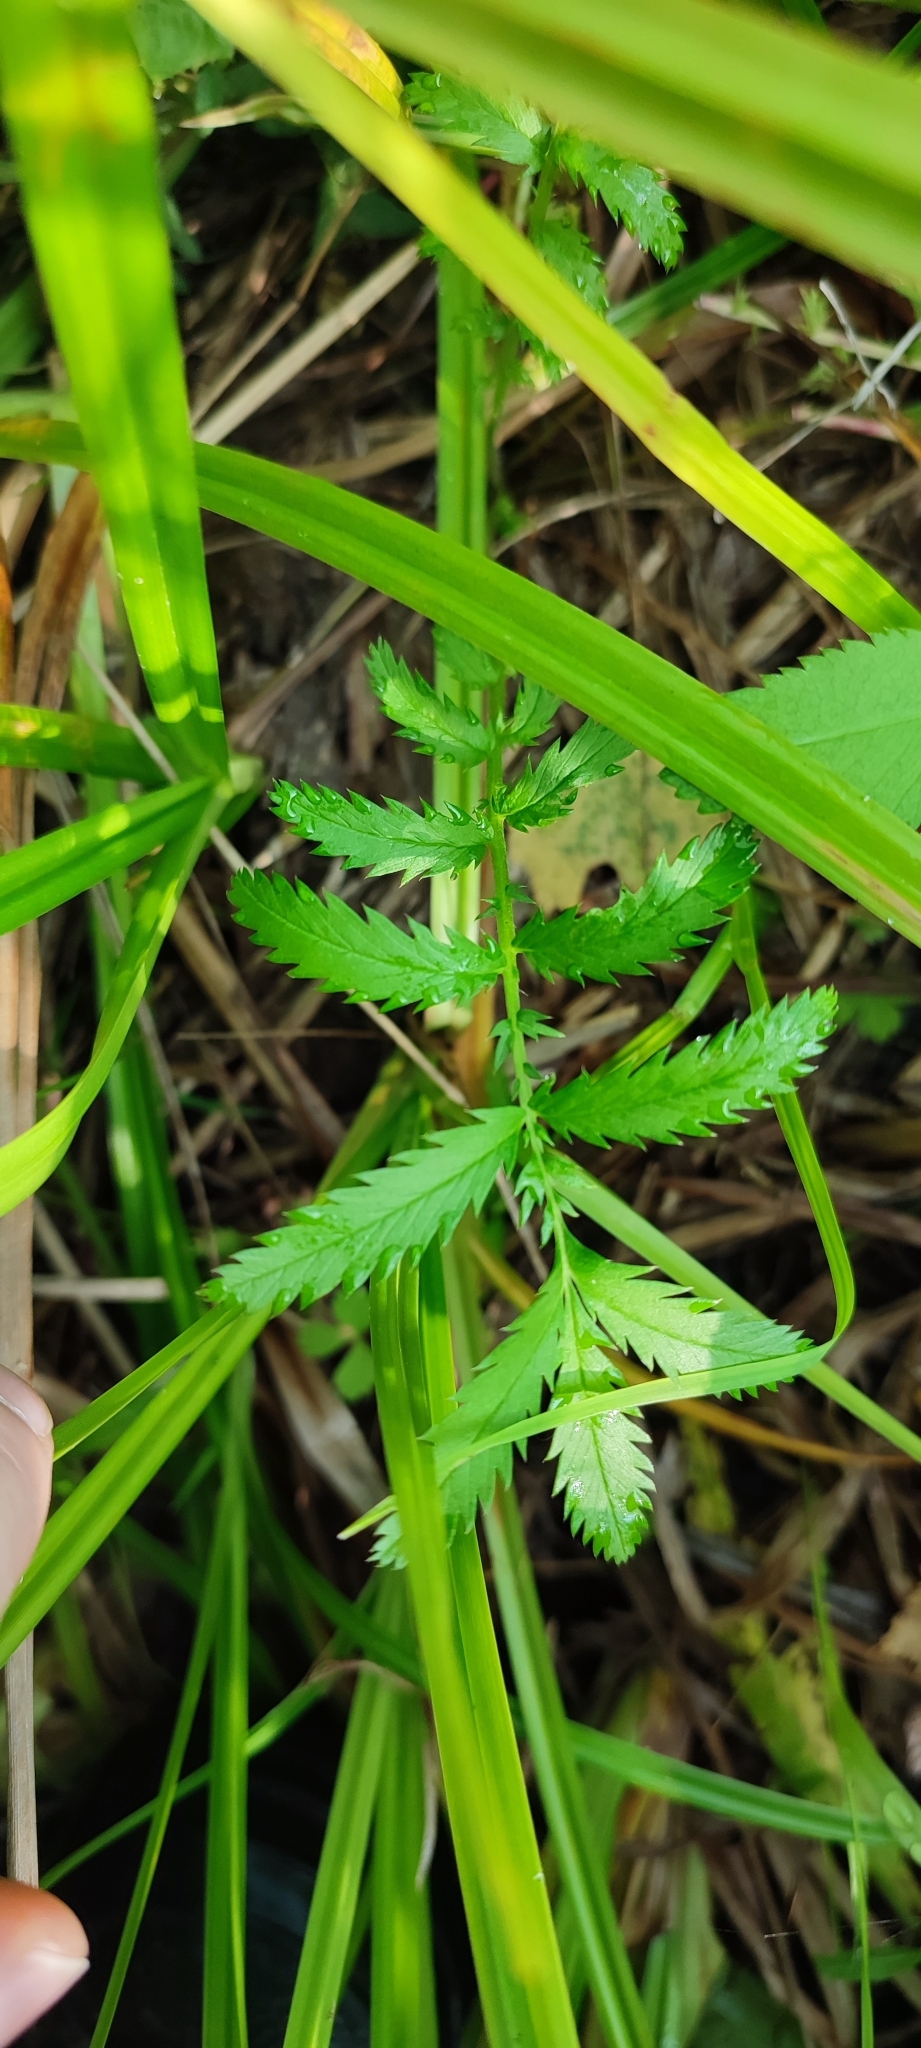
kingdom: Plantae
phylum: Tracheophyta
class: Magnoliopsida
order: Rosales
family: Rosaceae
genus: Argentina
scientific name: Argentina anserina
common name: Common silverweed
